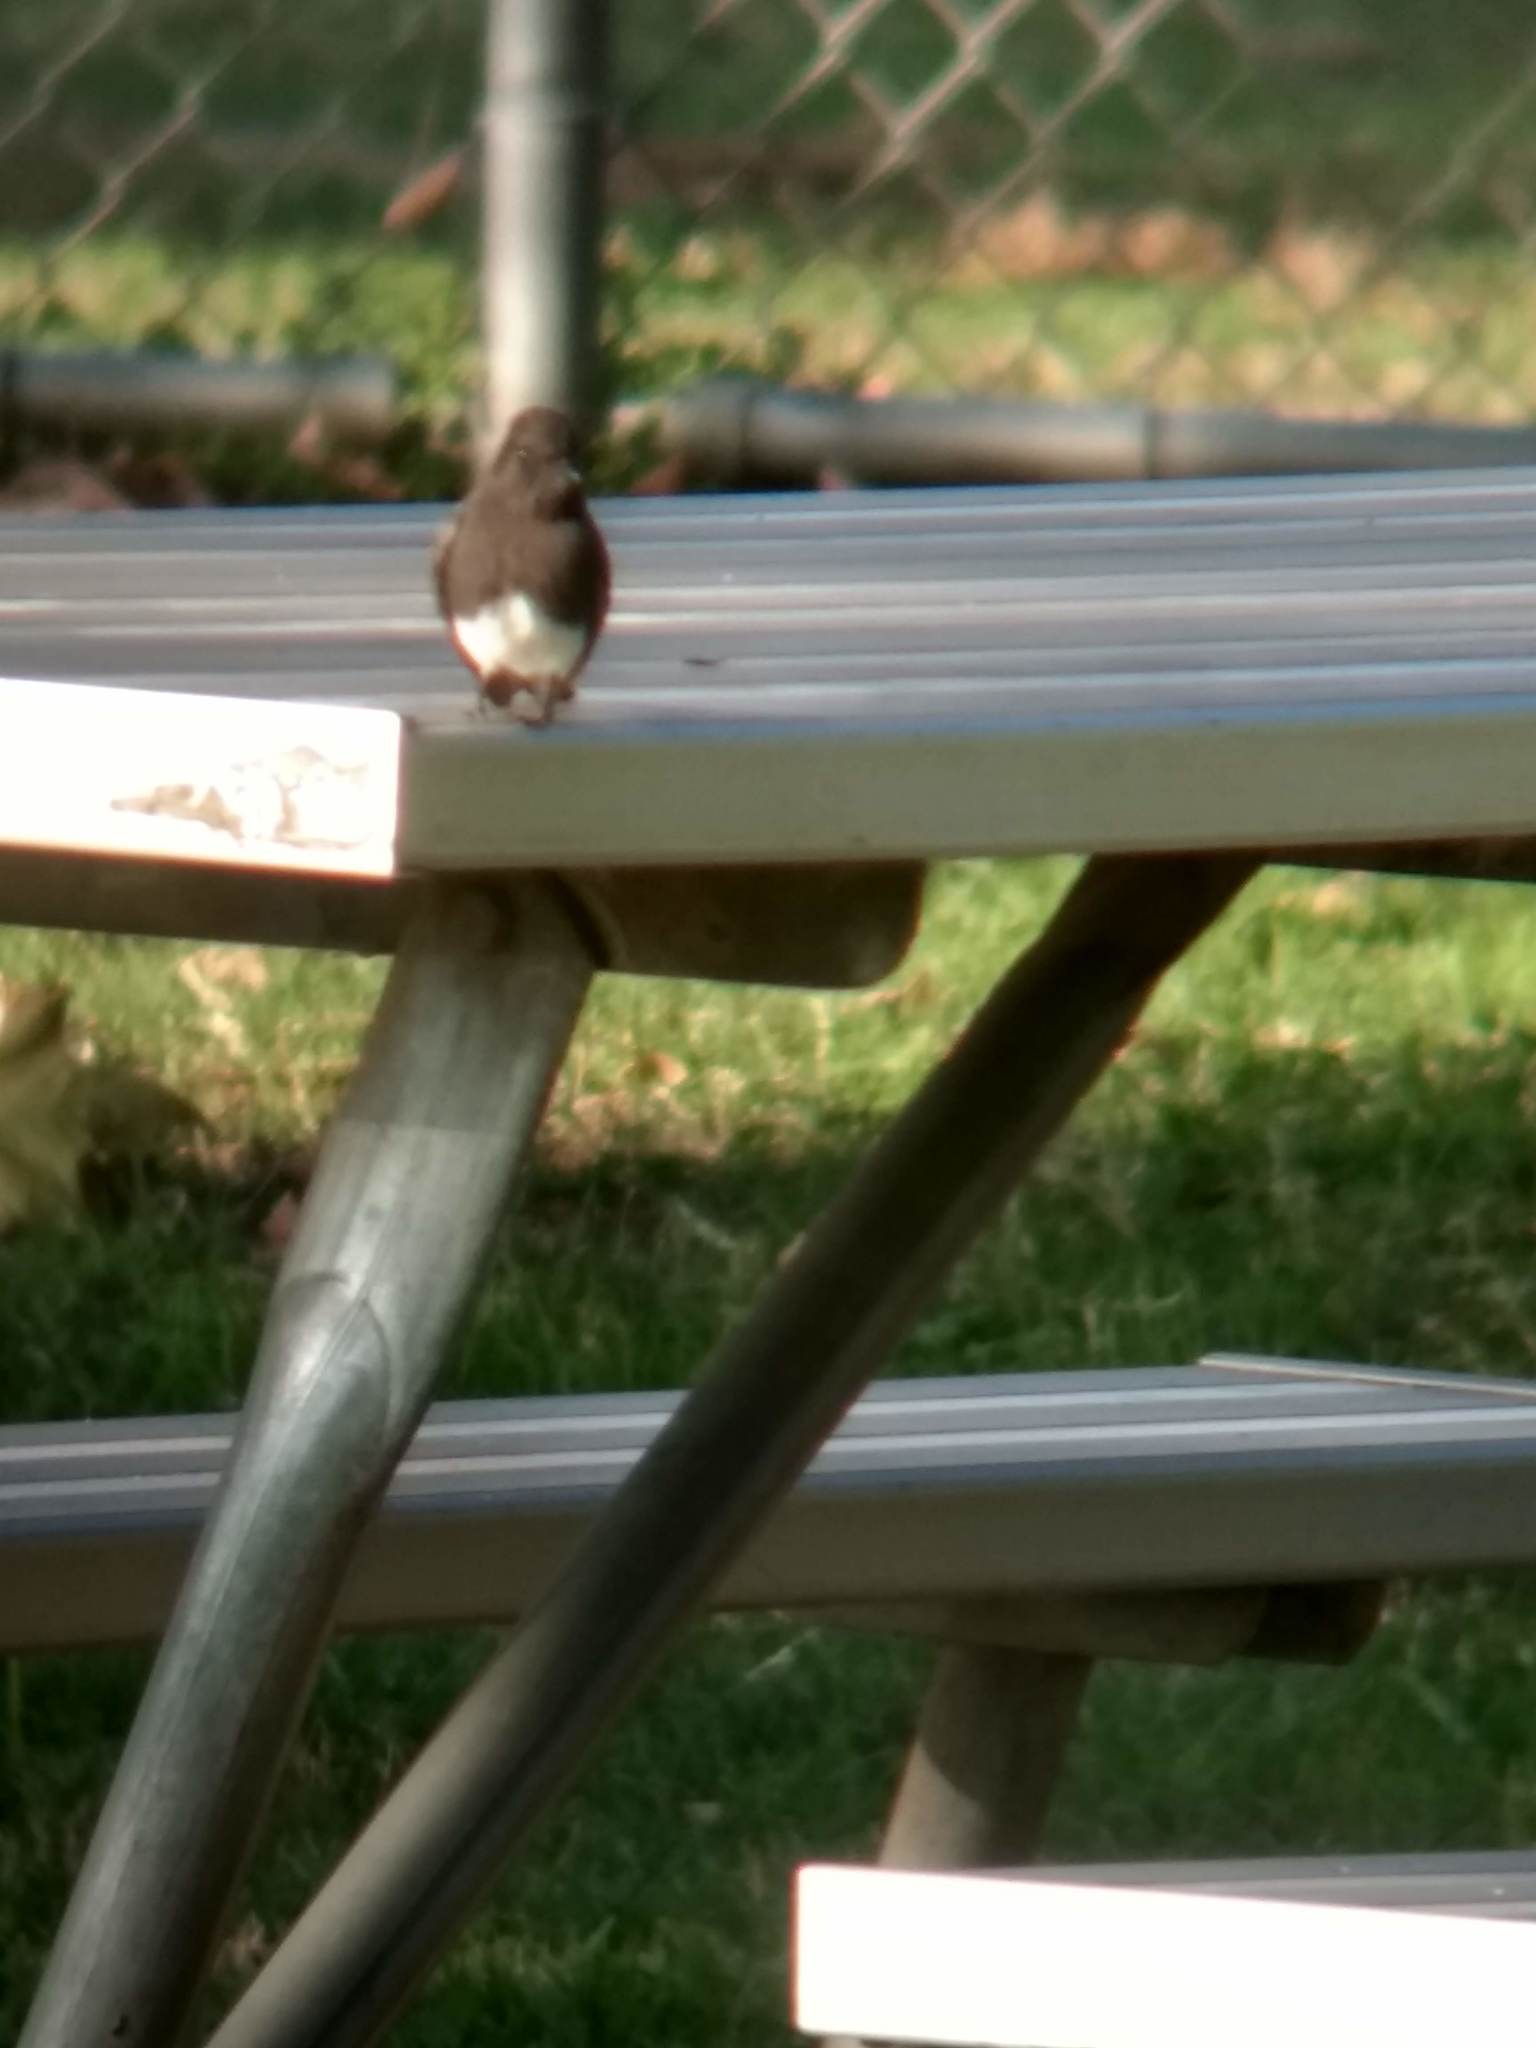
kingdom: Animalia
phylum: Chordata
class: Aves
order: Passeriformes
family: Tyrannidae
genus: Sayornis
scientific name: Sayornis nigricans
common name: Black phoebe
